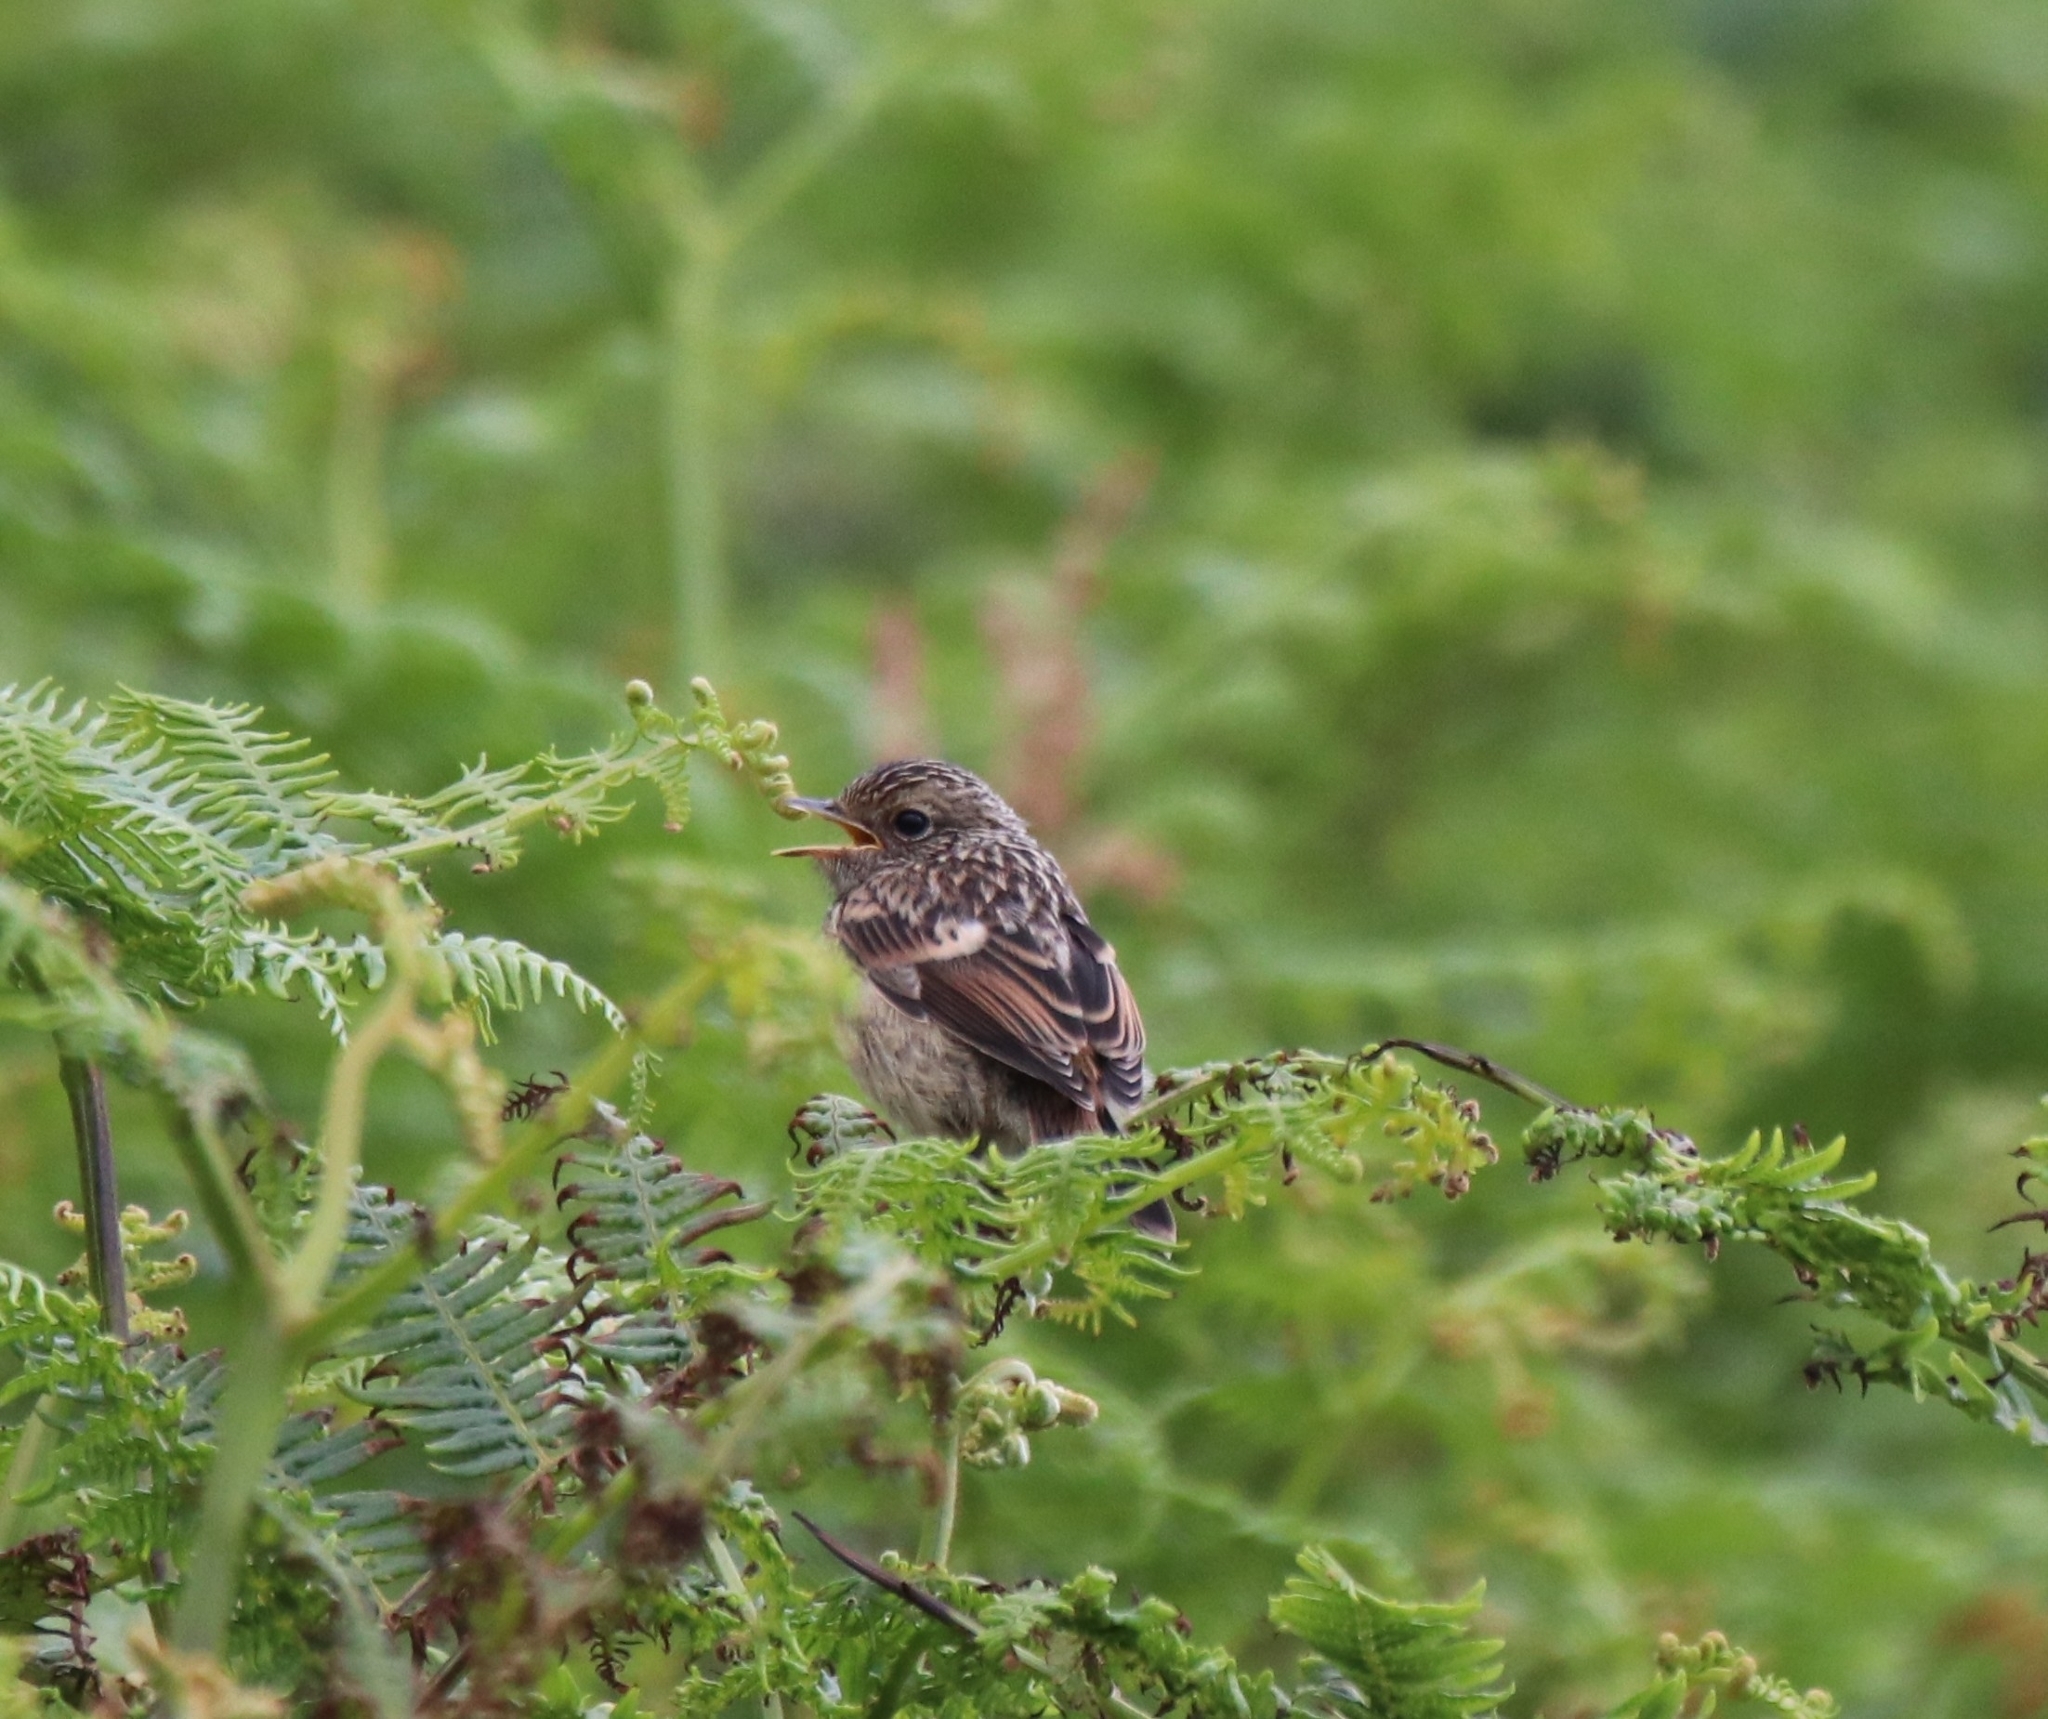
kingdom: Animalia
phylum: Chordata
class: Aves
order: Passeriformes
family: Muscicapidae
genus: Saxicola
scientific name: Saxicola rubicola
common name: European stonechat
